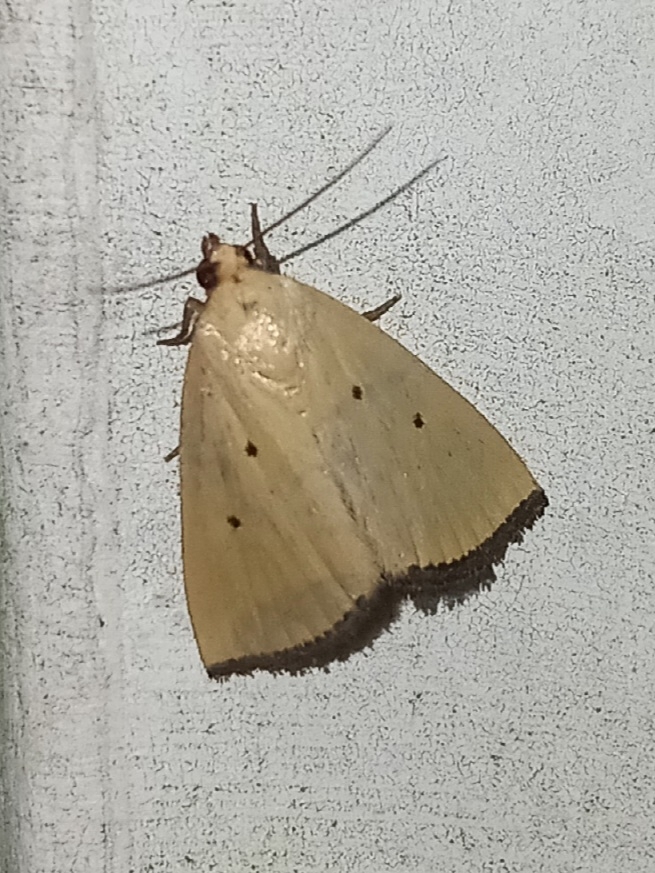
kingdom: Animalia
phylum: Arthropoda
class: Insecta
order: Lepidoptera
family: Noctuidae
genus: Marimatha
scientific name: Marimatha nigrofimbria
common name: Black-bordered lemon moth
